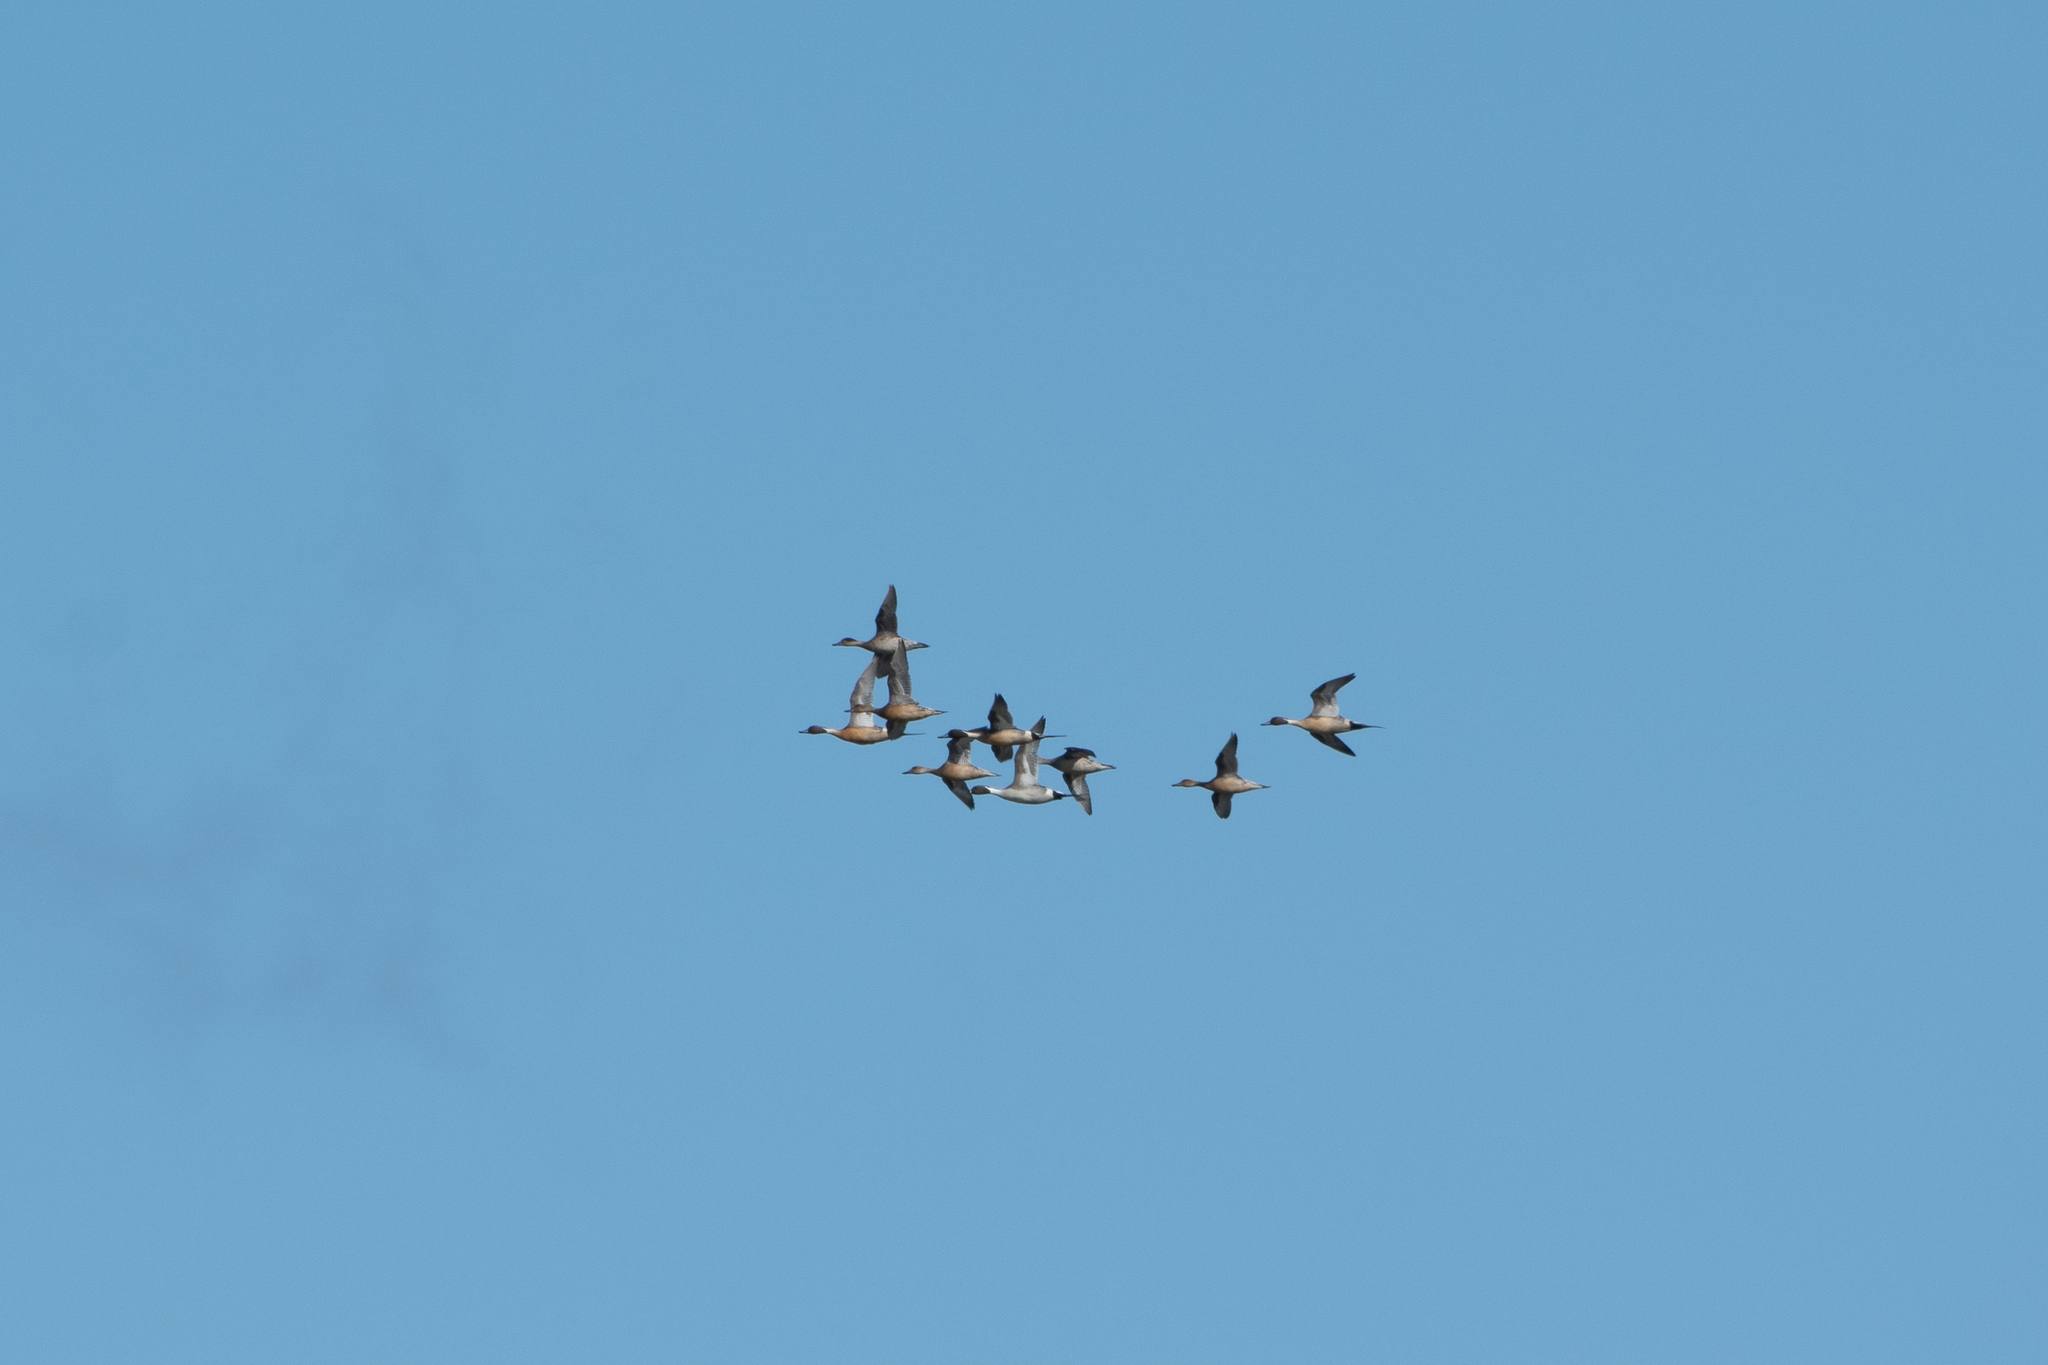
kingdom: Animalia
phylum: Chordata
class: Aves
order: Anseriformes
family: Anatidae
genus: Anas
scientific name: Anas acuta
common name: Northern pintail
